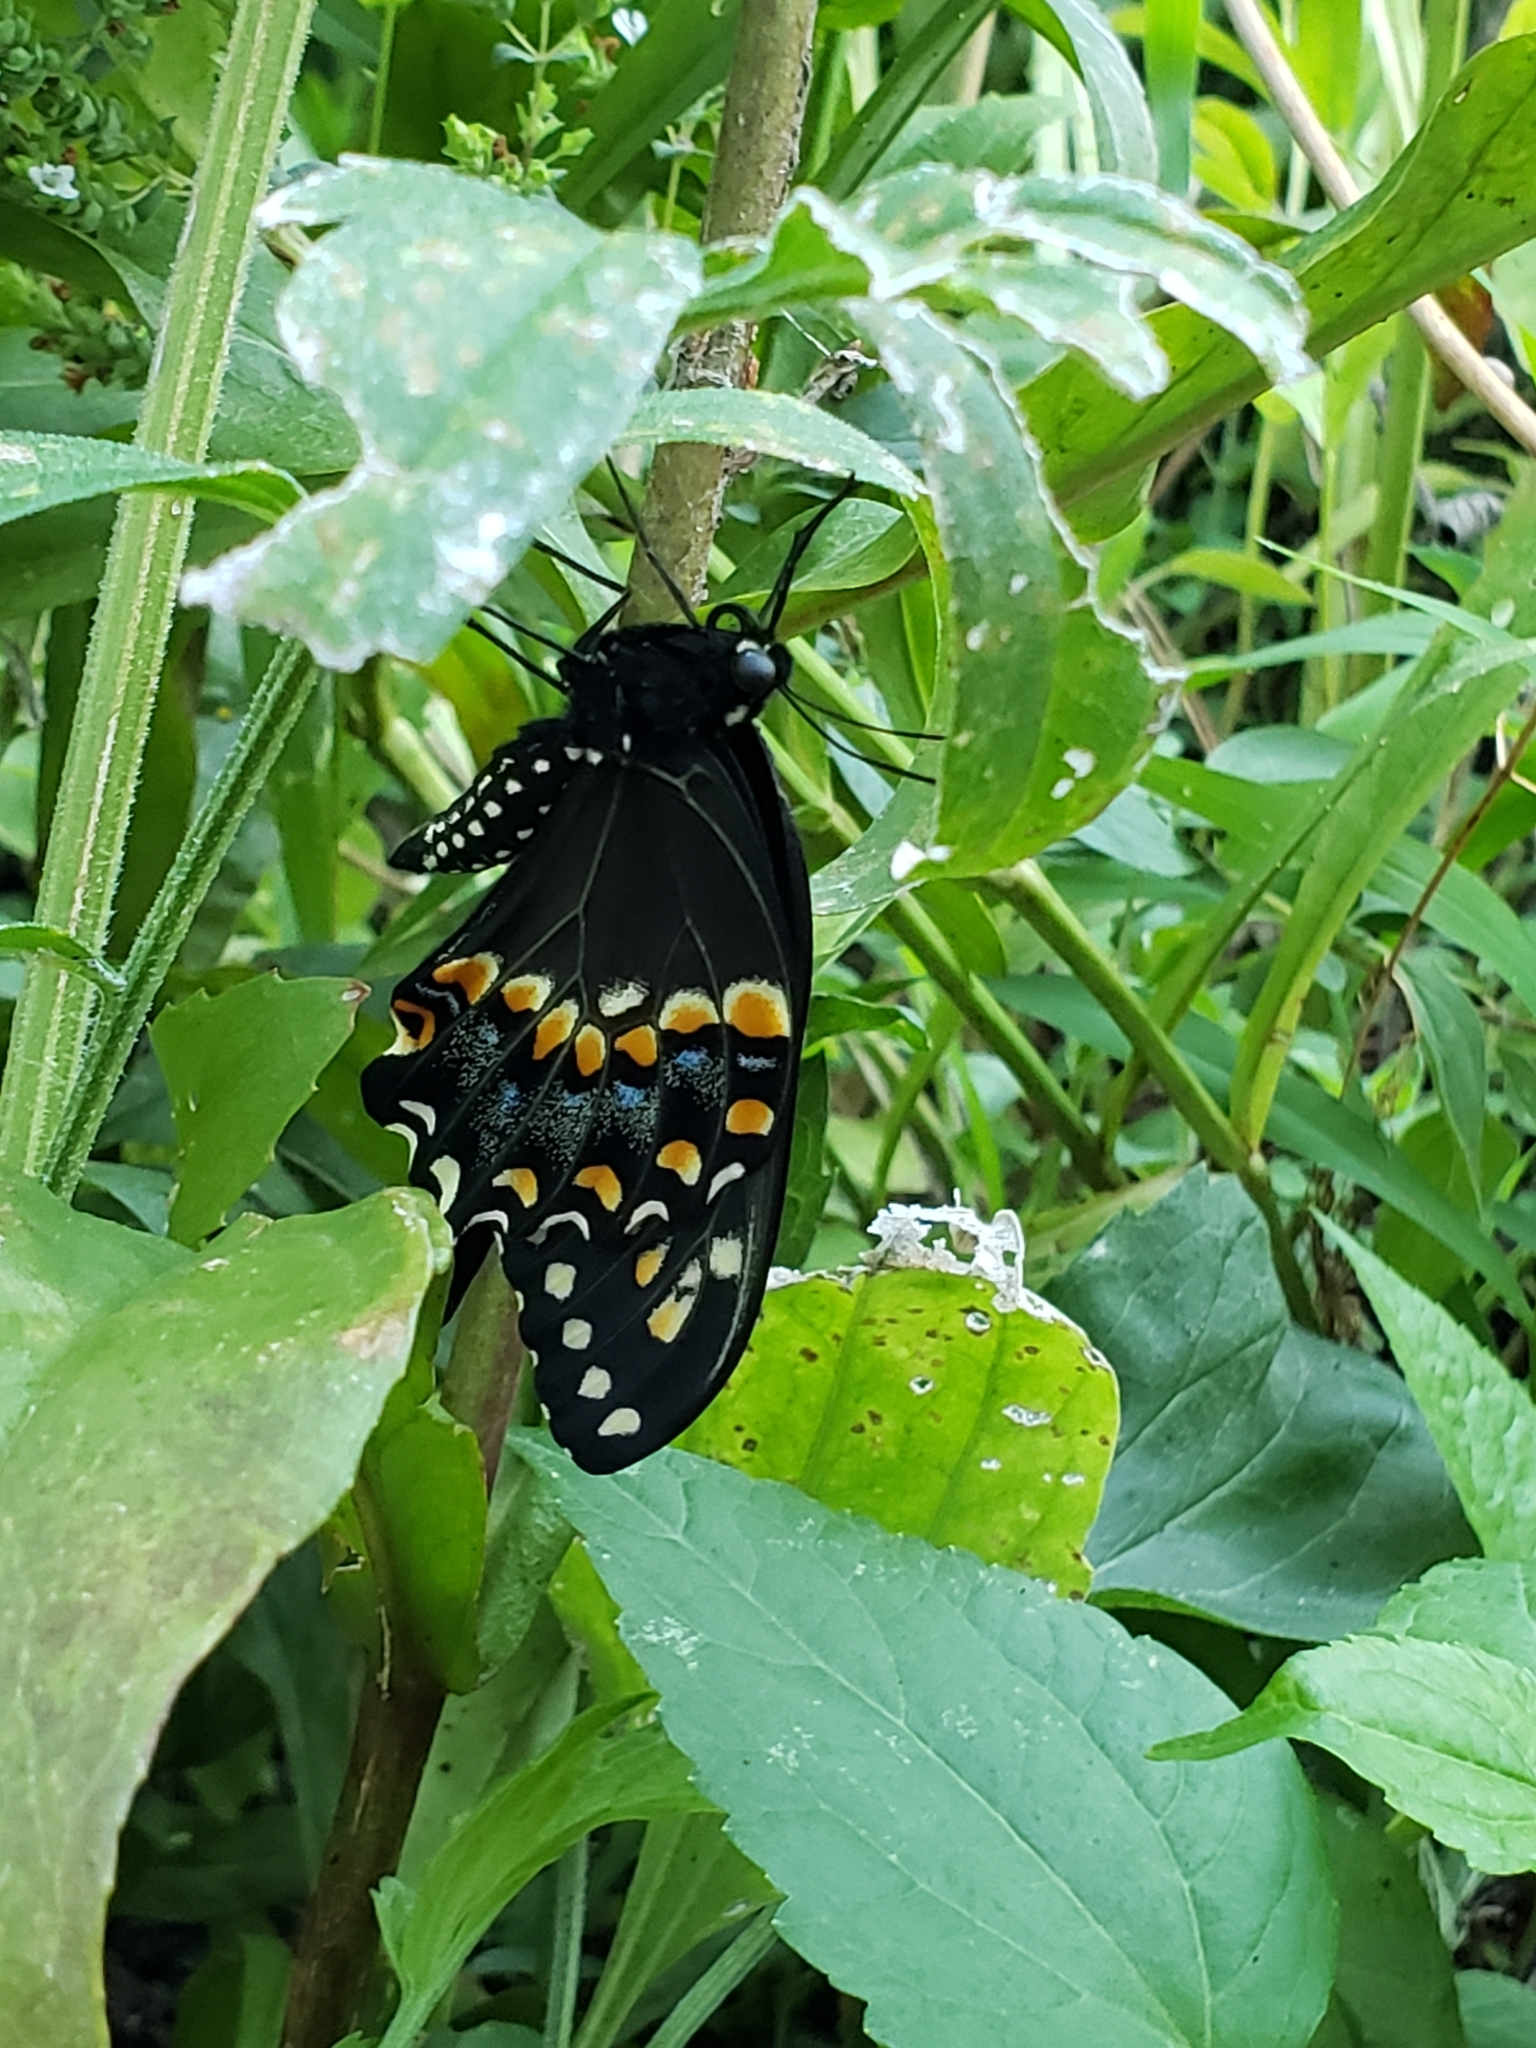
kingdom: Animalia
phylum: Arthropoda
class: Insecta
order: Lepidoptera
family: Papilionidae
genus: Papilio
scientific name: Papilio polyxenes
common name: Black swallowtail
